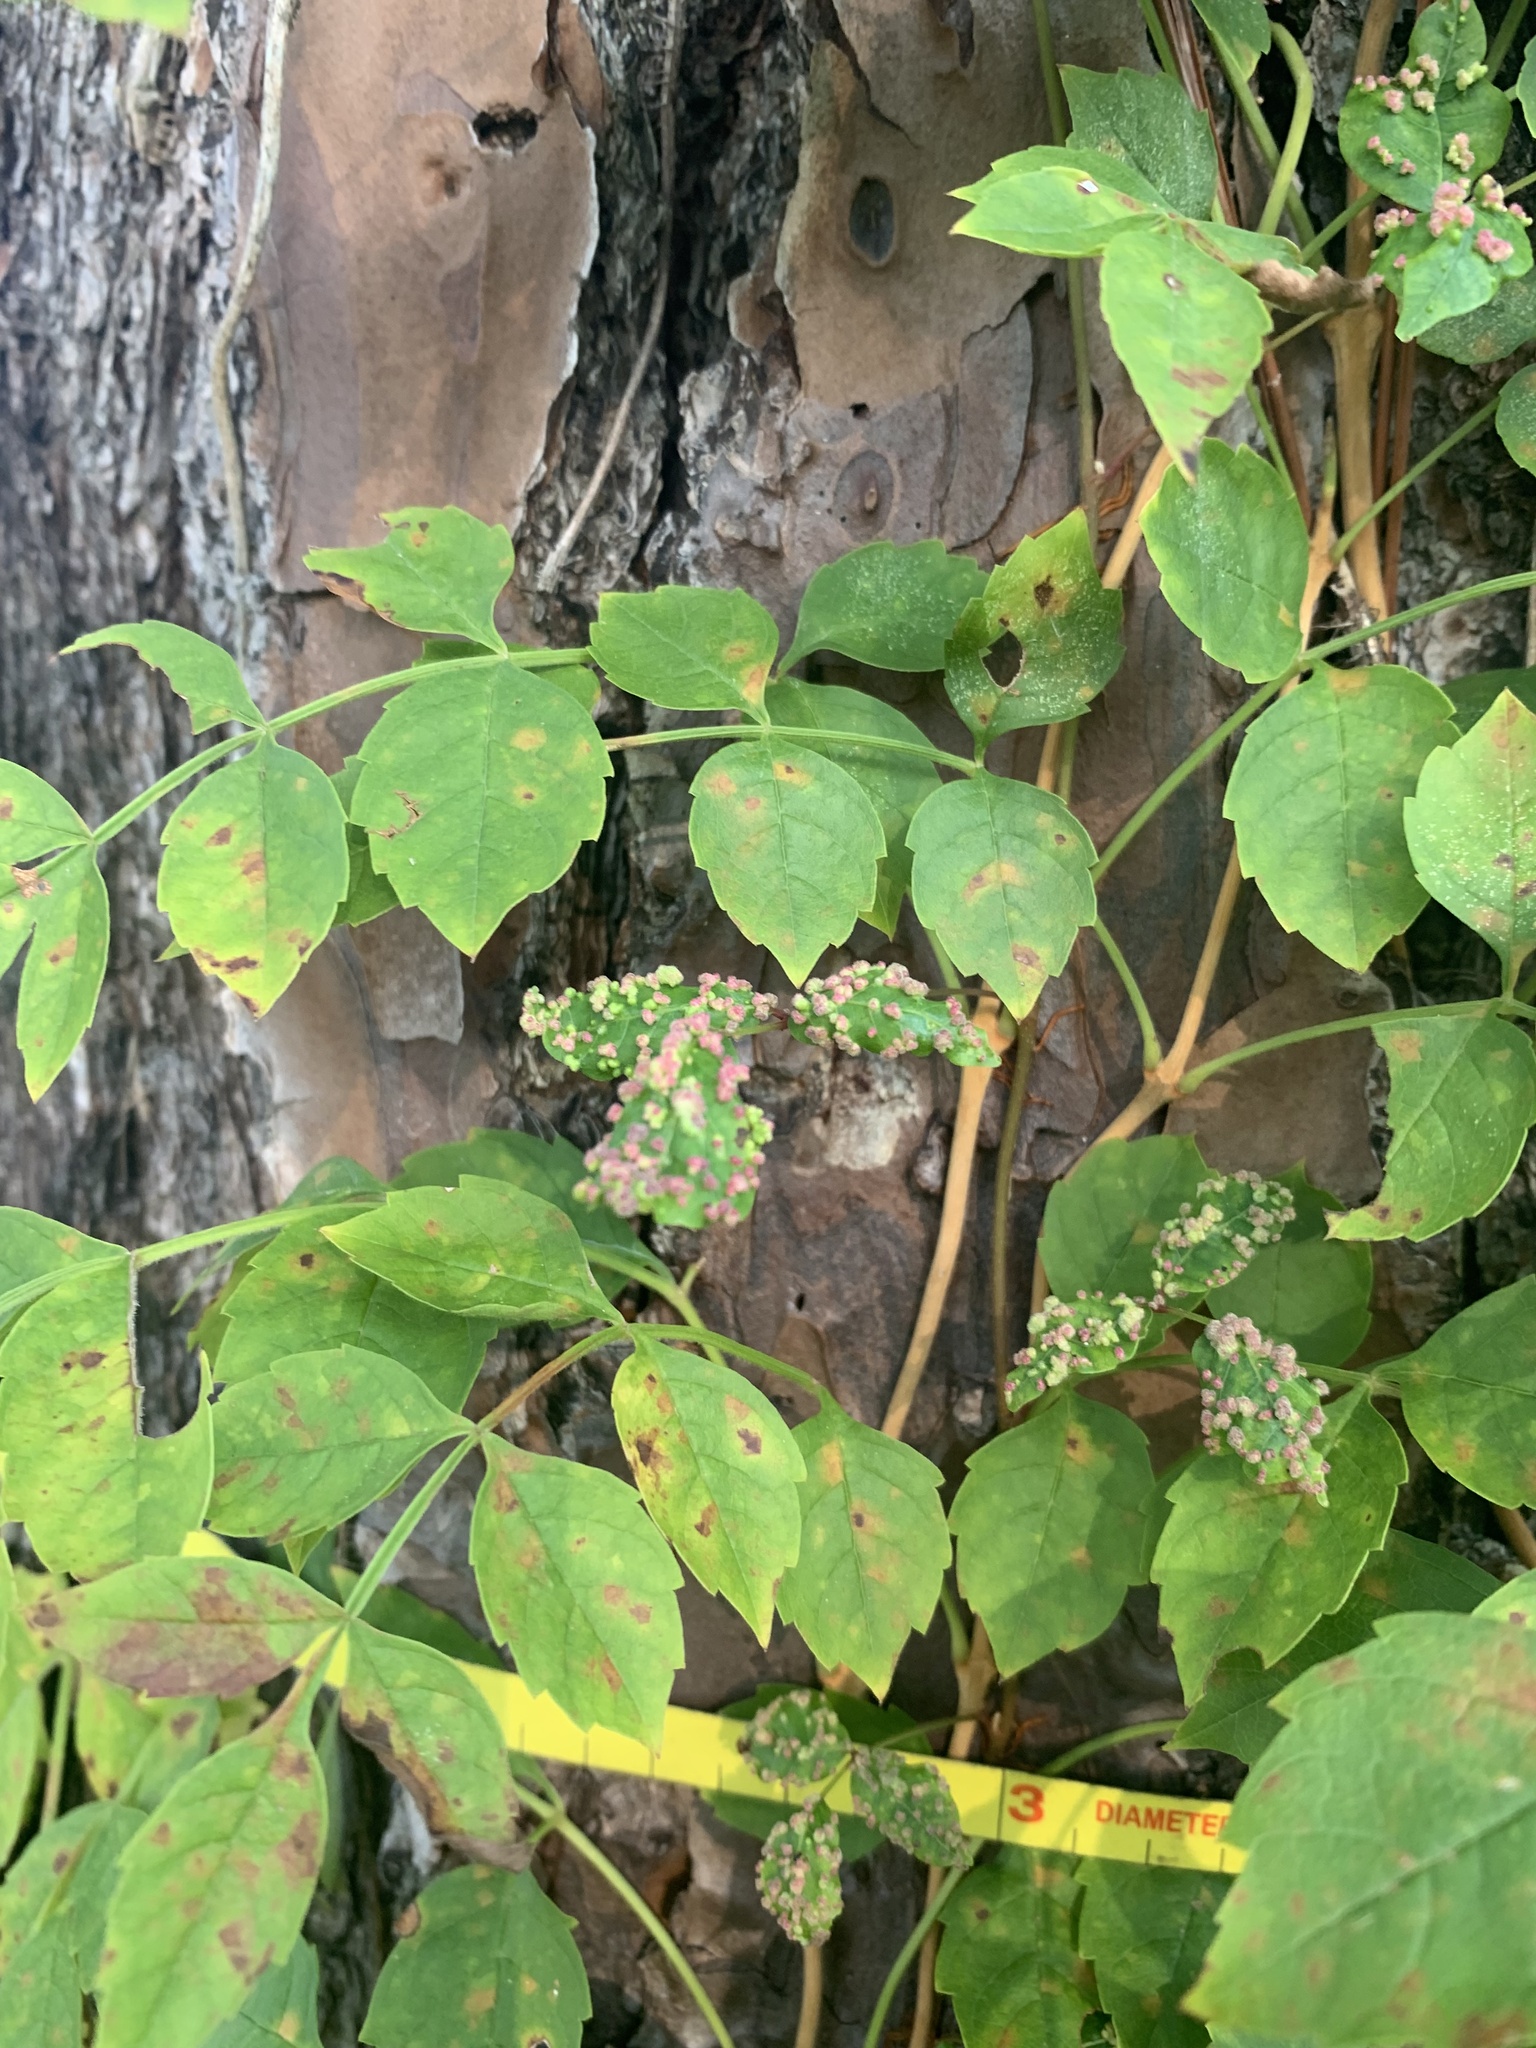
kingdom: Plantae
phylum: Tracheophyta
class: Magnoliopsida
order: Lamiales
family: Bignoniaceae
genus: Campsis
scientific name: Campsis radicans
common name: Trumpet-creeper
